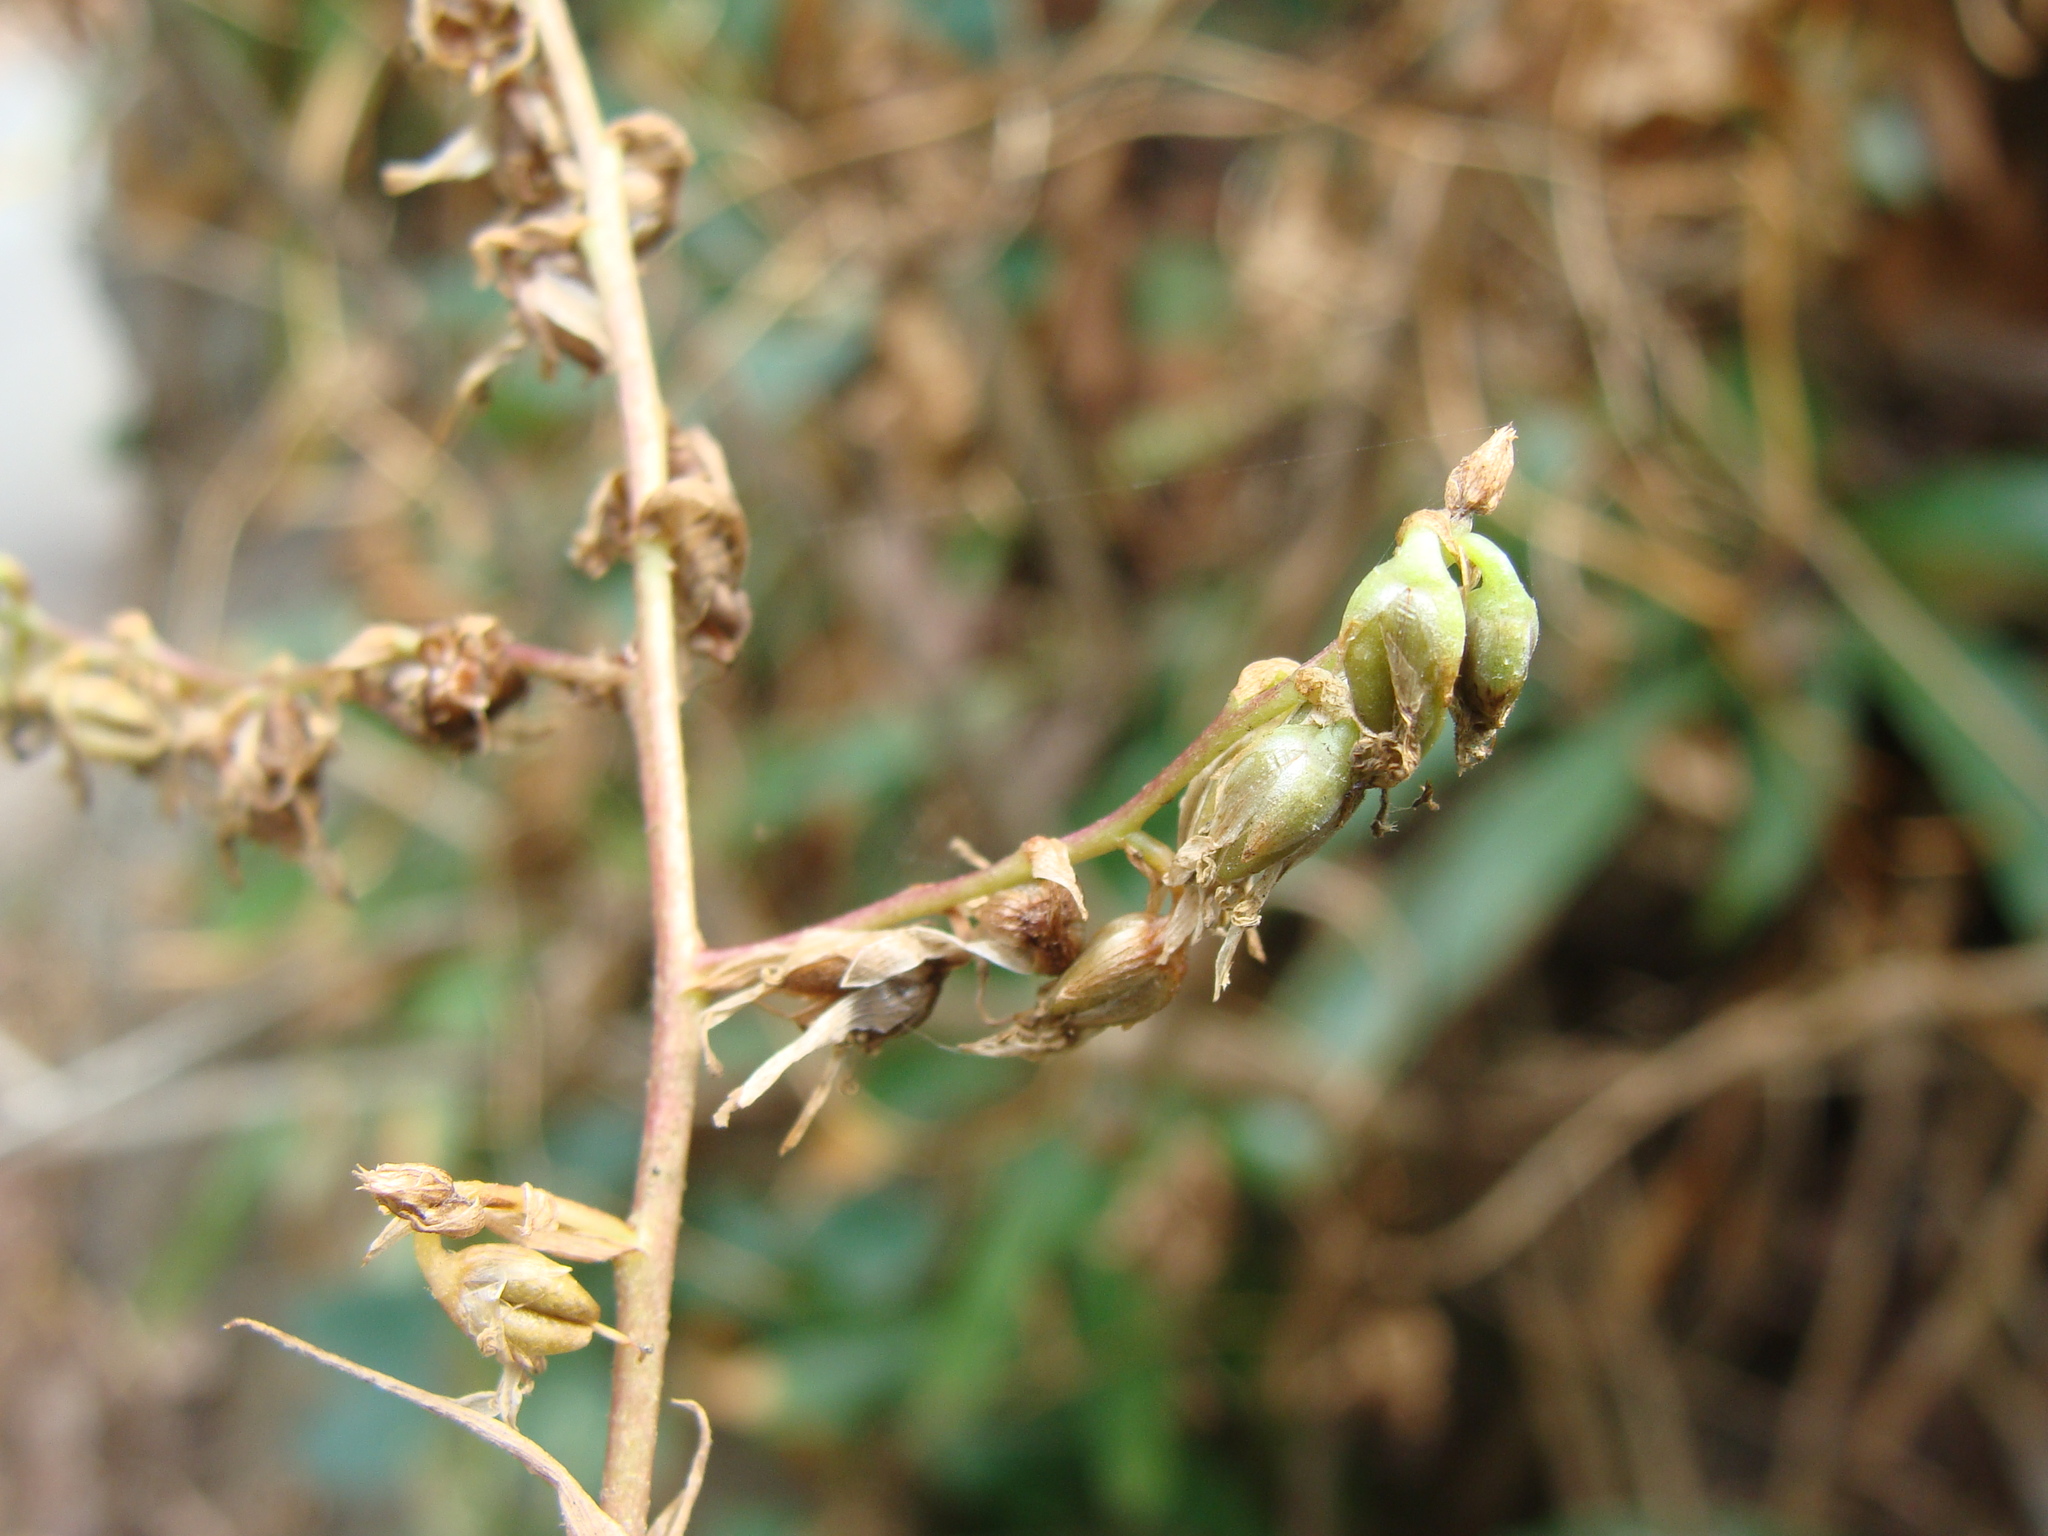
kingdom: Plantae
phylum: Tracheophyta
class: Liliopsida
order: Poales
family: Bromeliaceae
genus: Fosterella
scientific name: Fosterella micrantha
